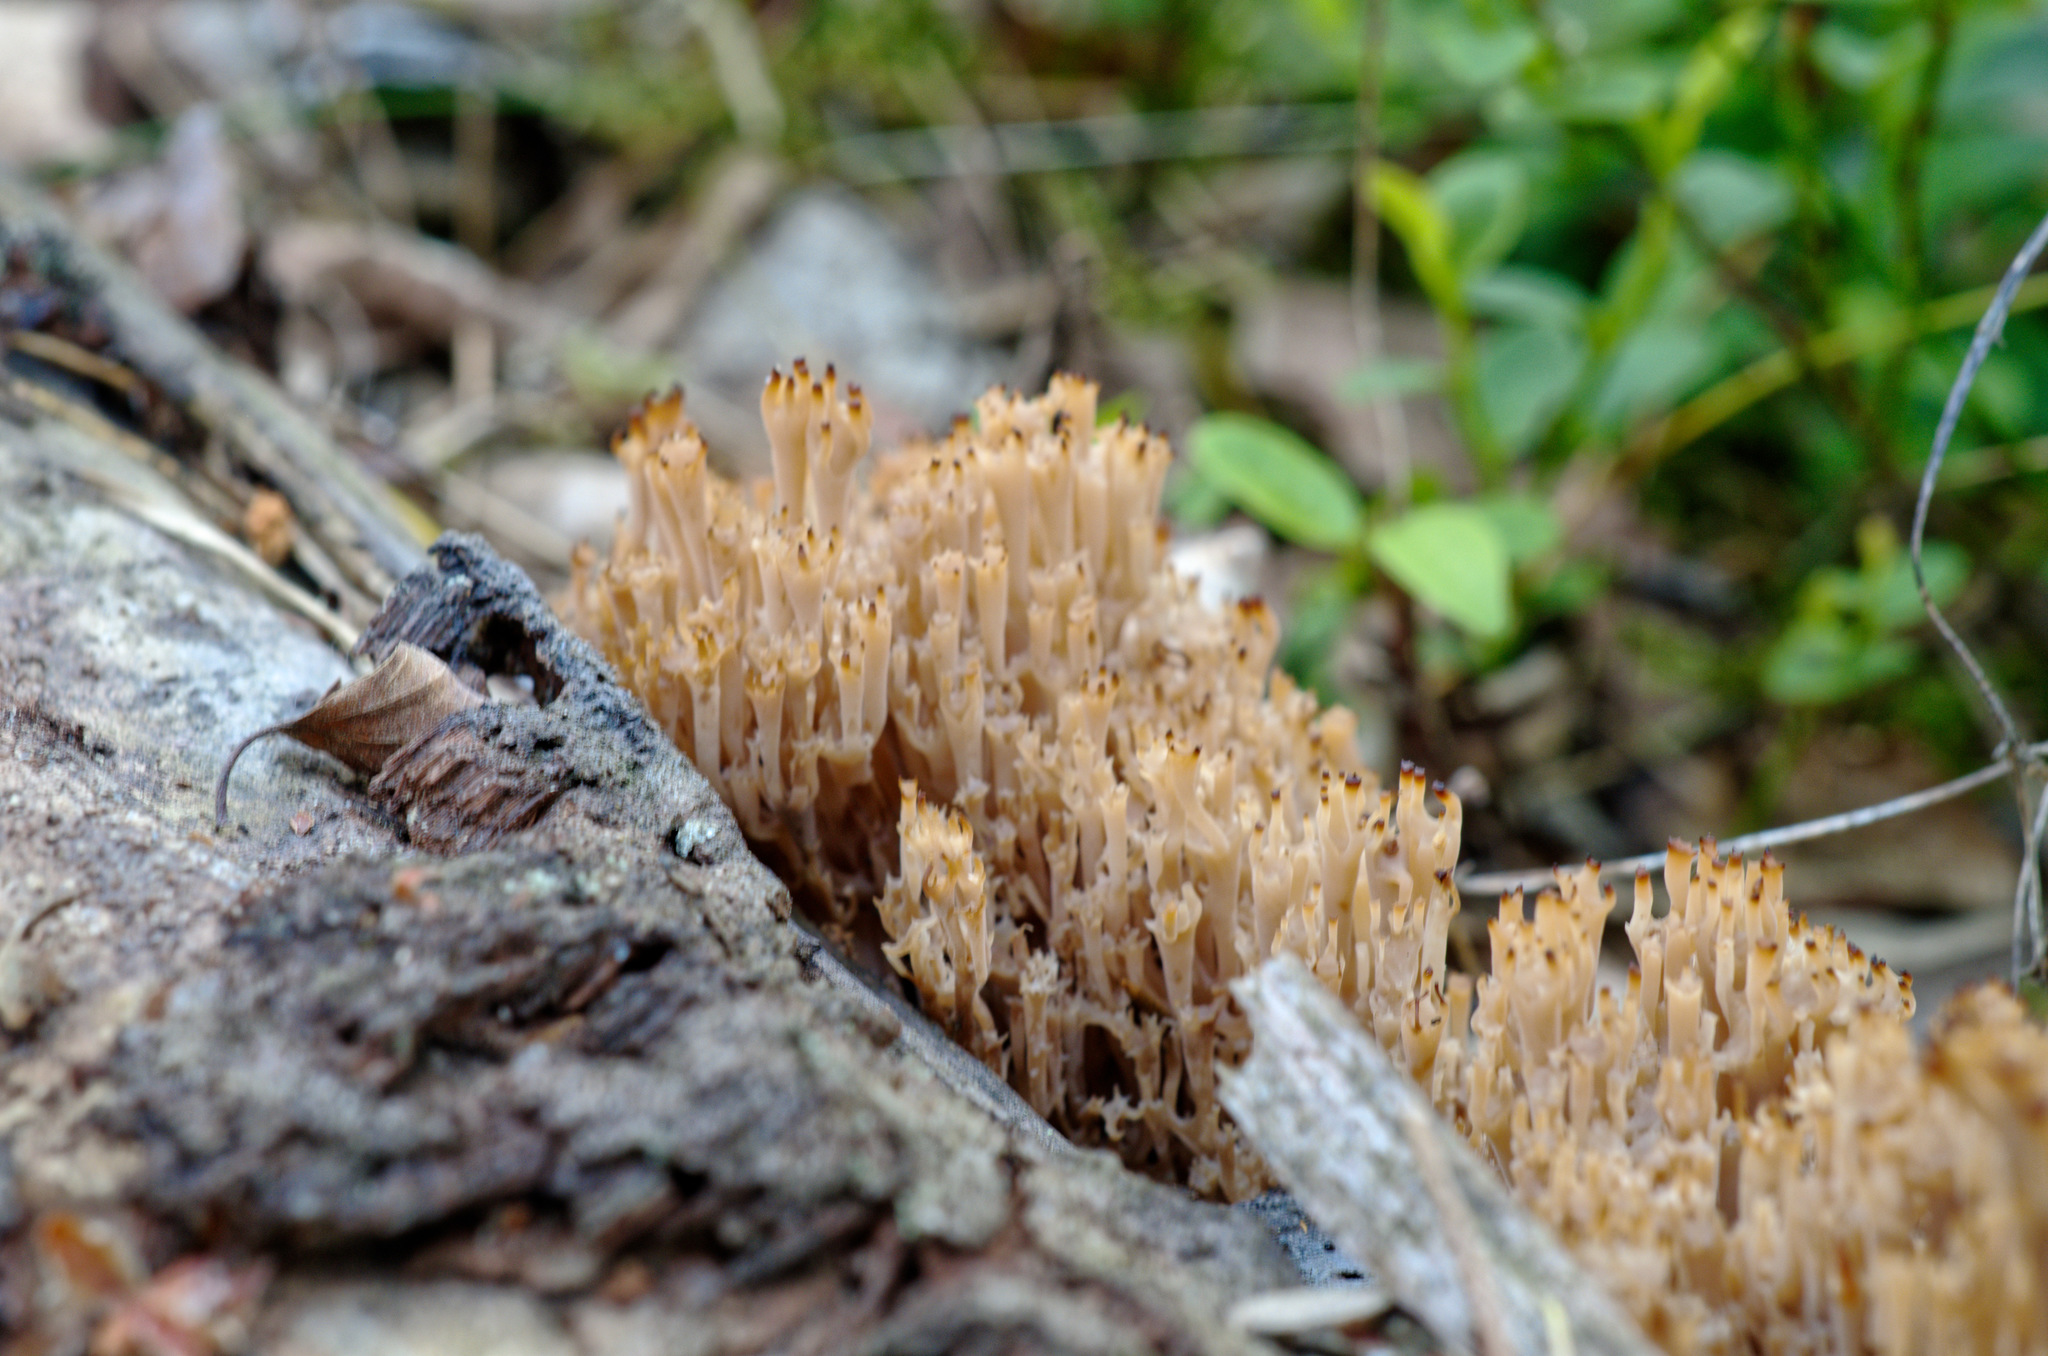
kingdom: Fungi
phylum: Basidiomycota
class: Agaricomycetes
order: Russulales
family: Auriscalpiaceae
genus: Artomyces
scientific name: Artomyces pyxidatus
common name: Crown-tipped coral fungus
